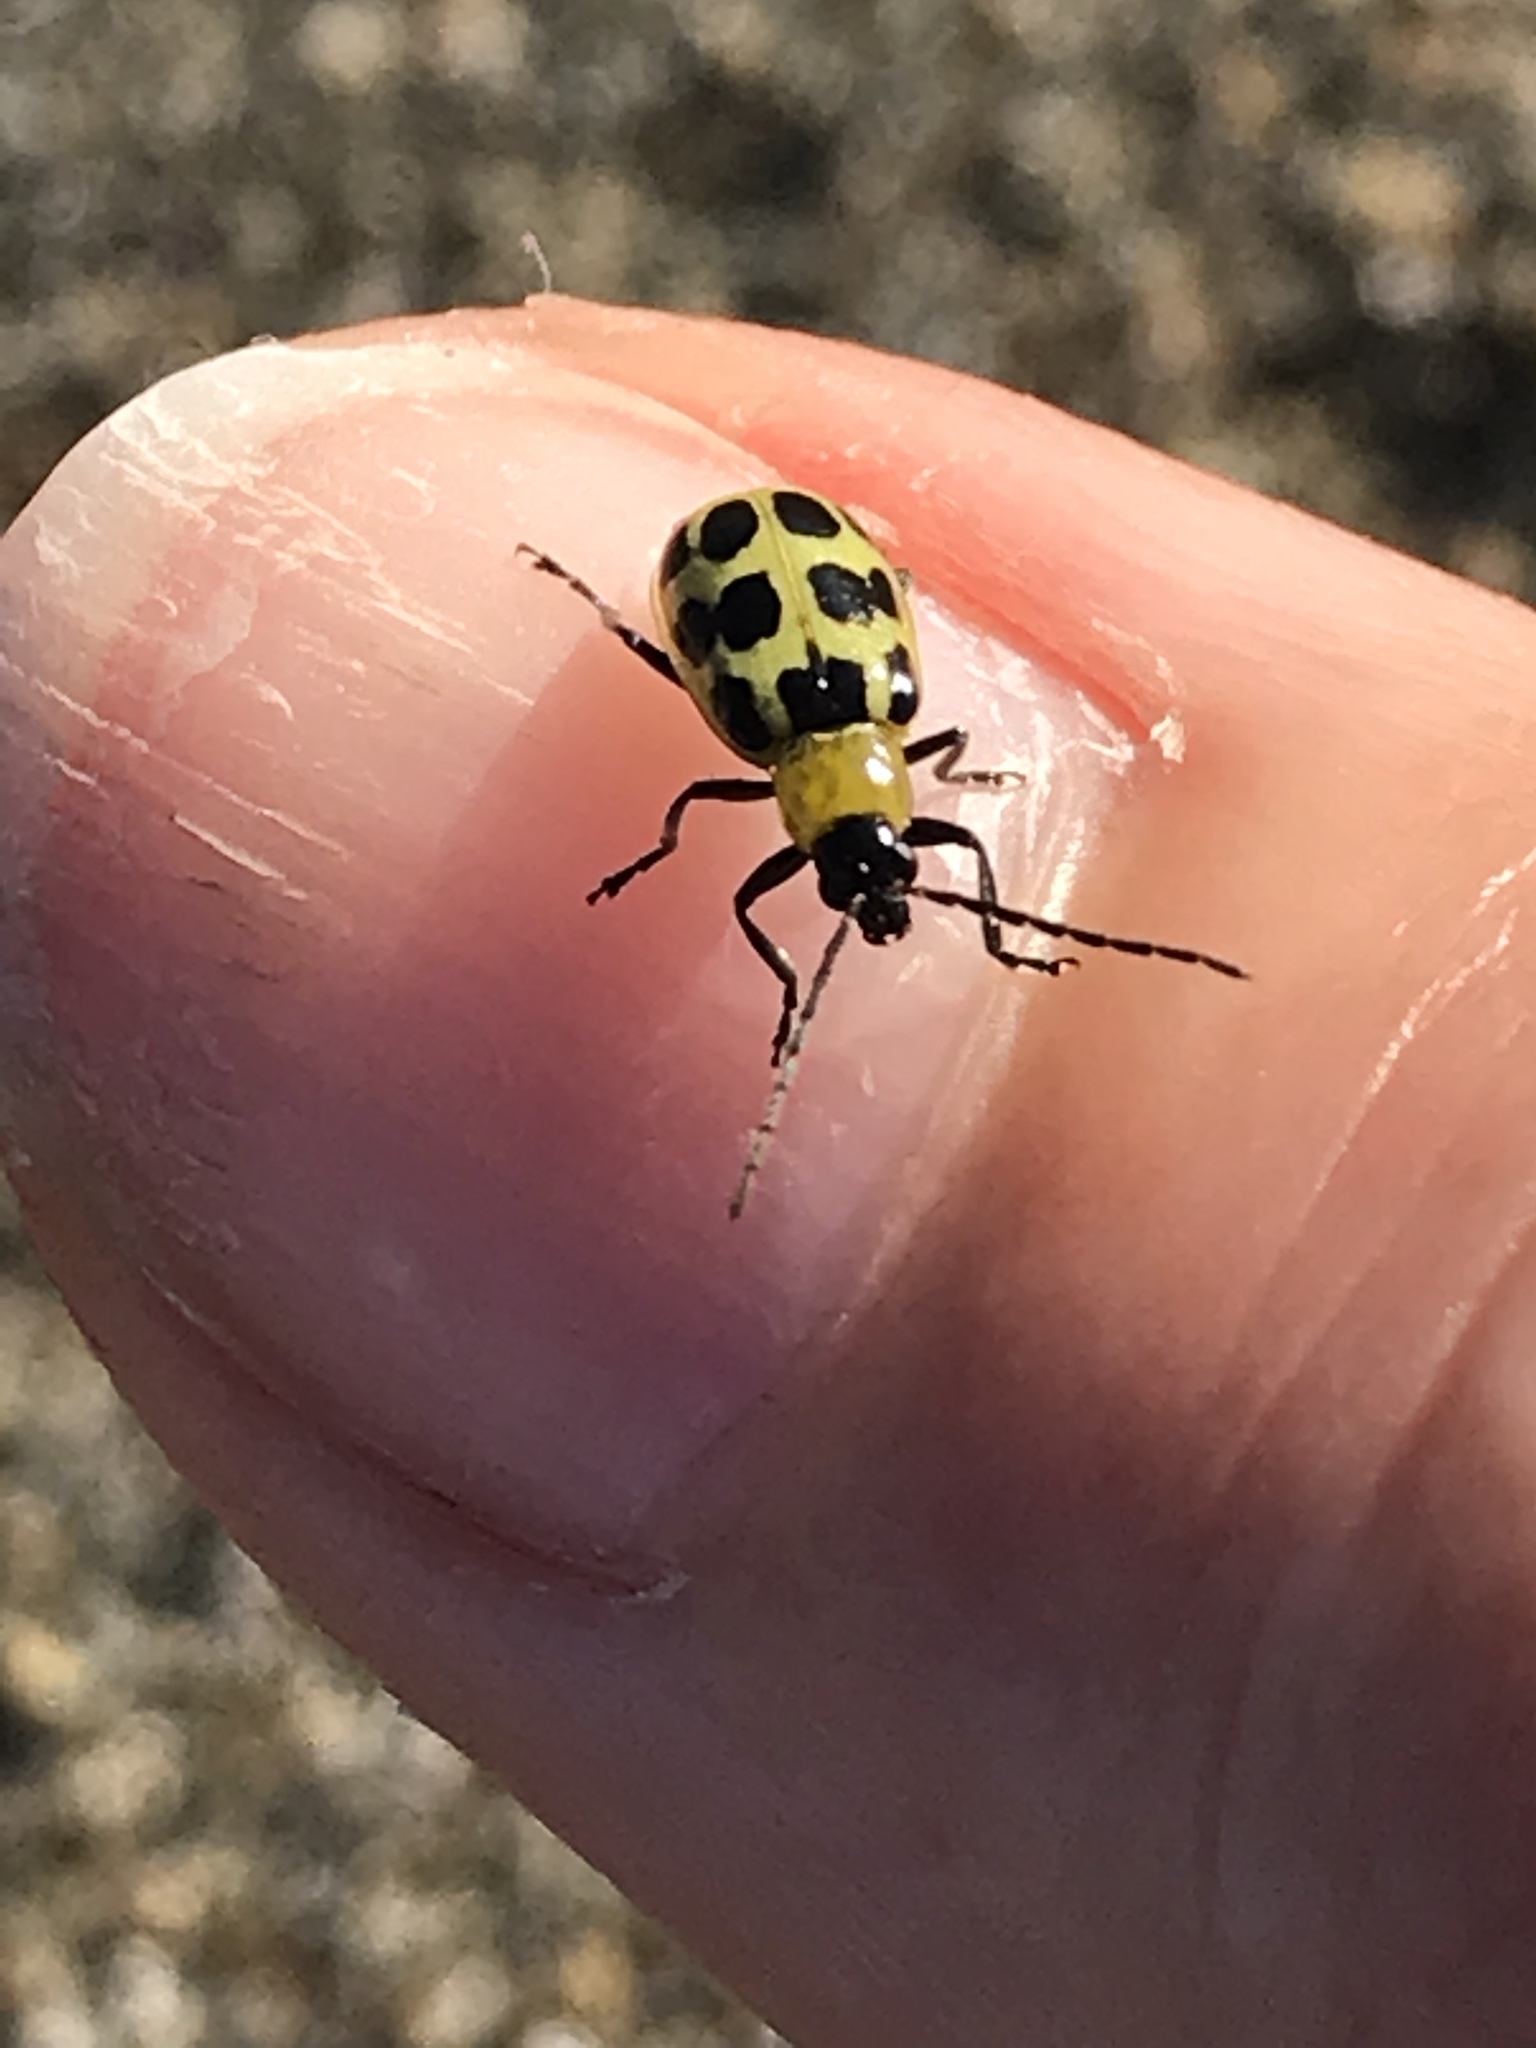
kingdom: Animalia
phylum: Arthropoda
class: Insecta
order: Coleoptera
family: Chrysomelidae
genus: Diabrotica
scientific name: Diabrotica undecimpunctata
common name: Spotted cucumber beetle
